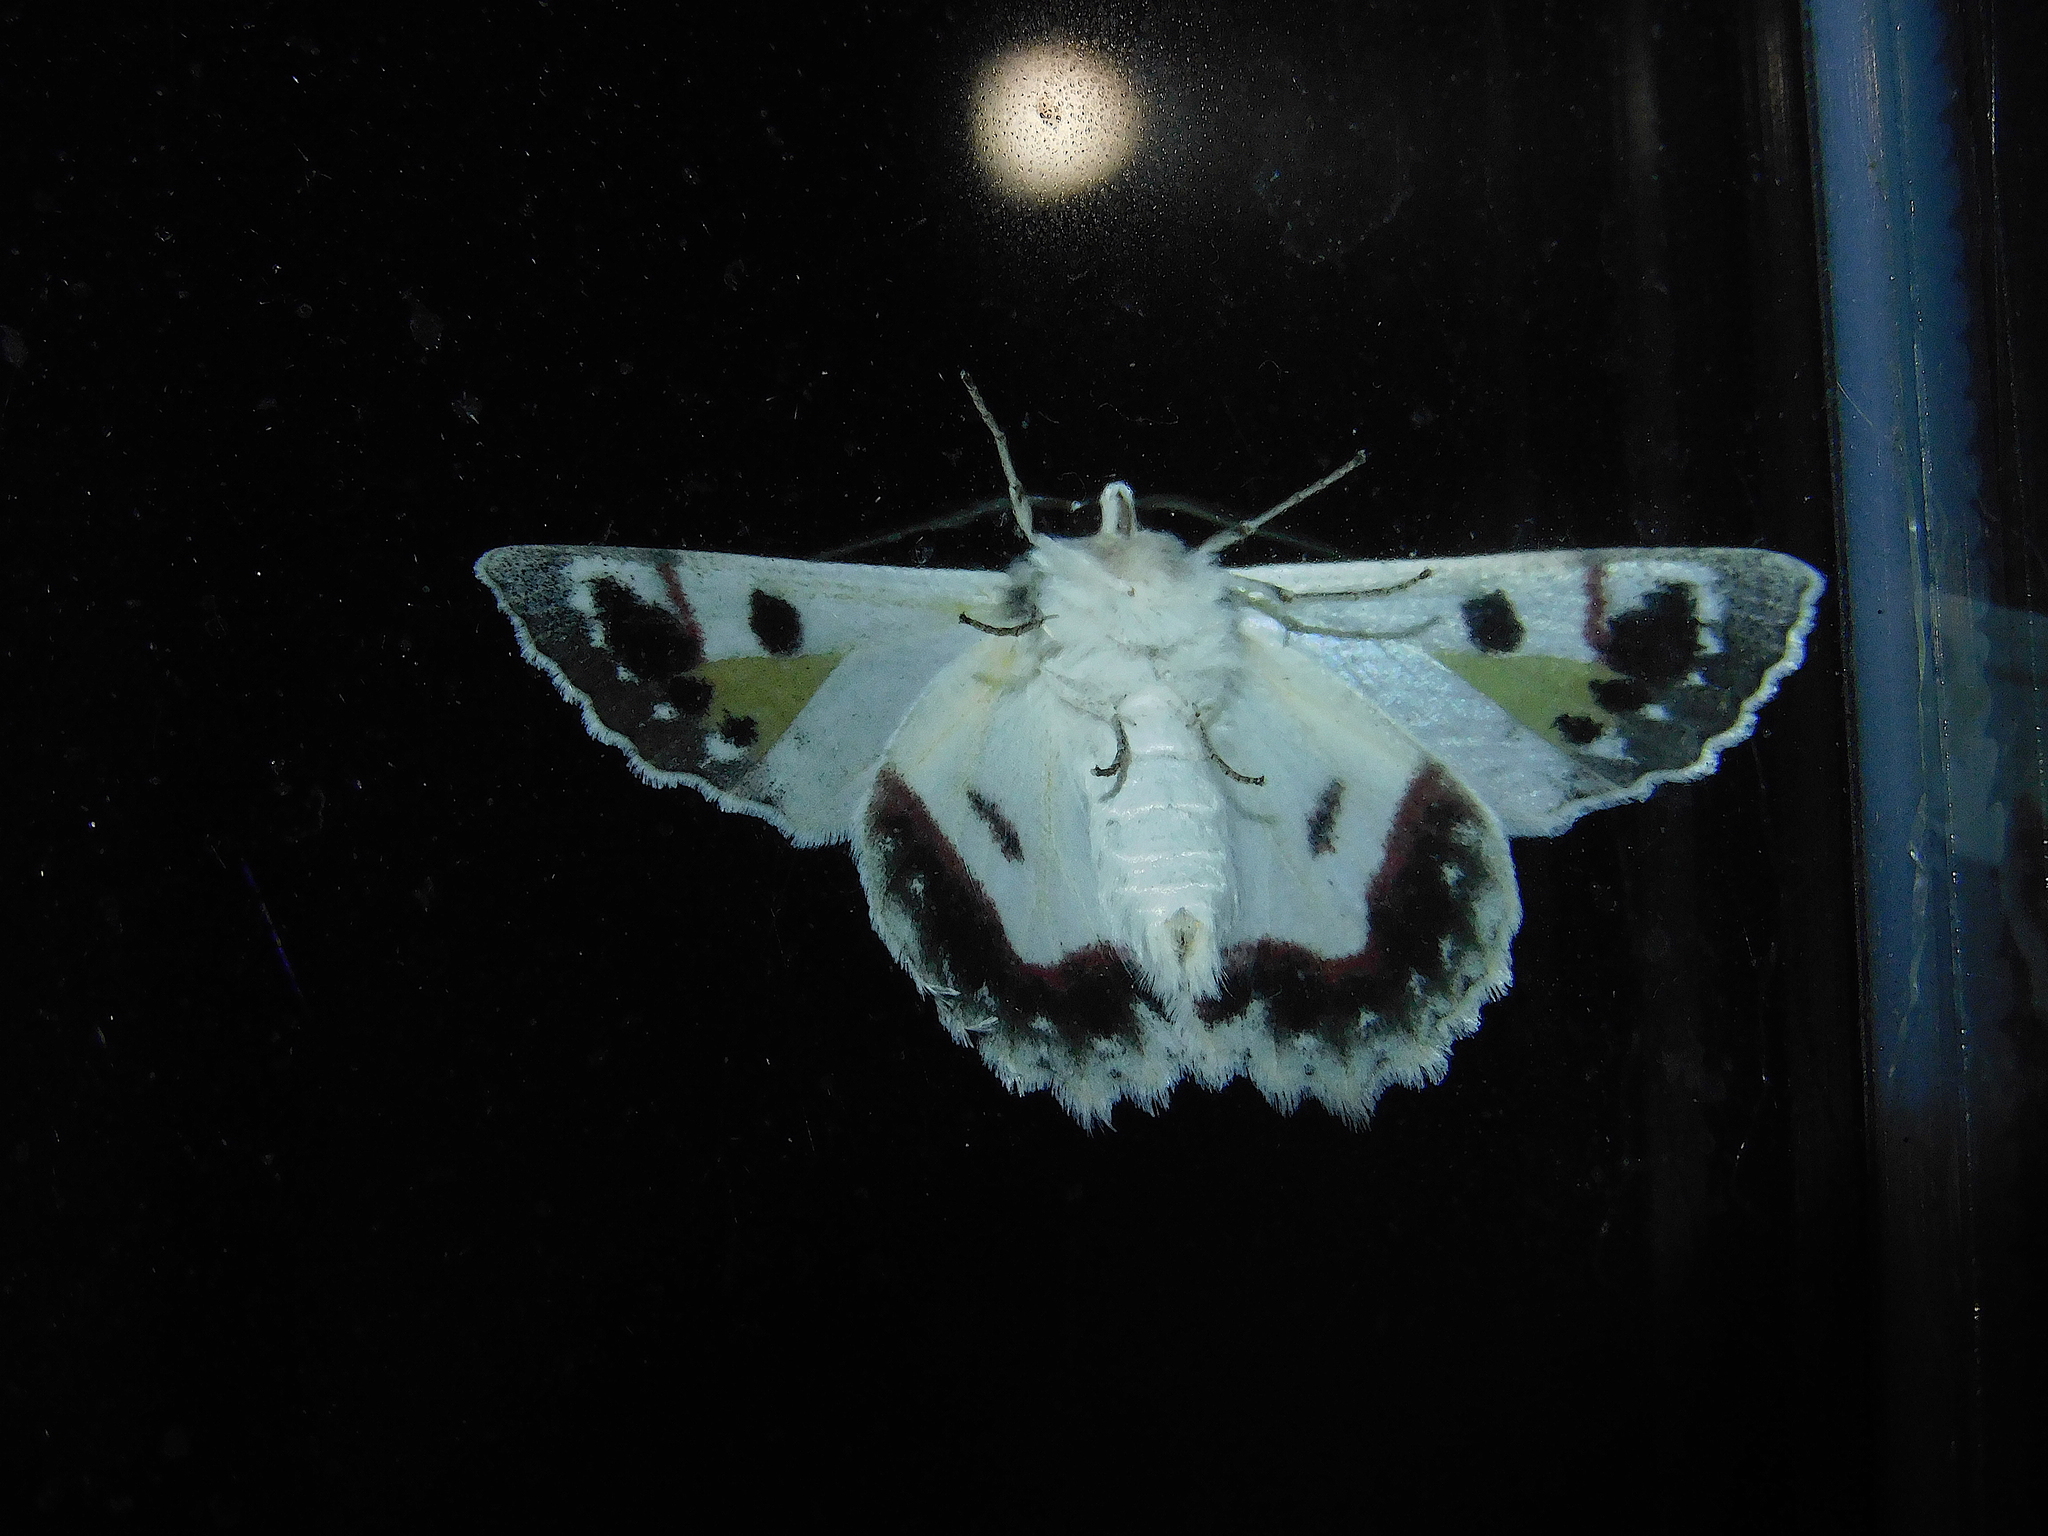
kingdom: Animalia
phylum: Arthropoda
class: Insecta
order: Lepidoptera
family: Geometridae
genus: Crypsiphona
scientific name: Crypsiphona
